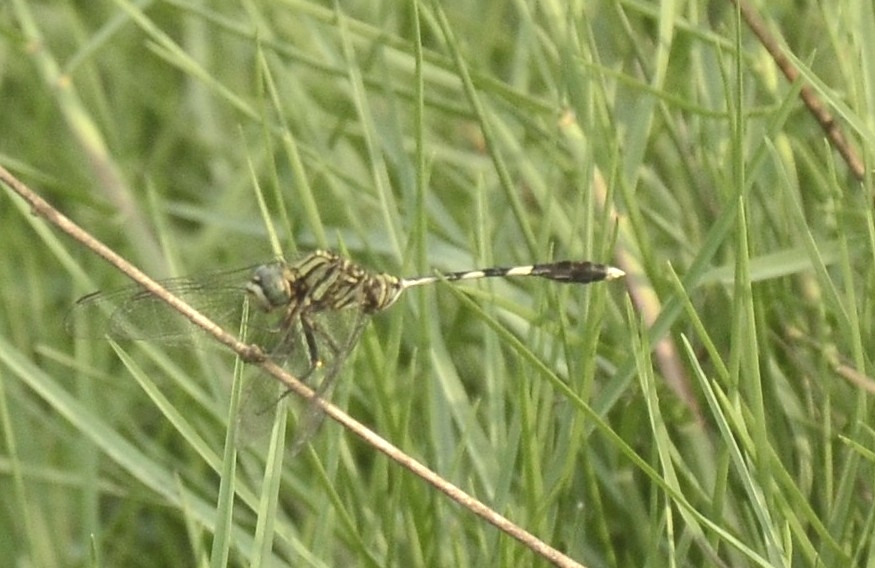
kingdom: Animalia
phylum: Arthropoda
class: Insecta
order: Odonata
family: Libellulidae
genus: Orthetrum
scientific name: Orthetrum sabina
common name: Slender skimmer
